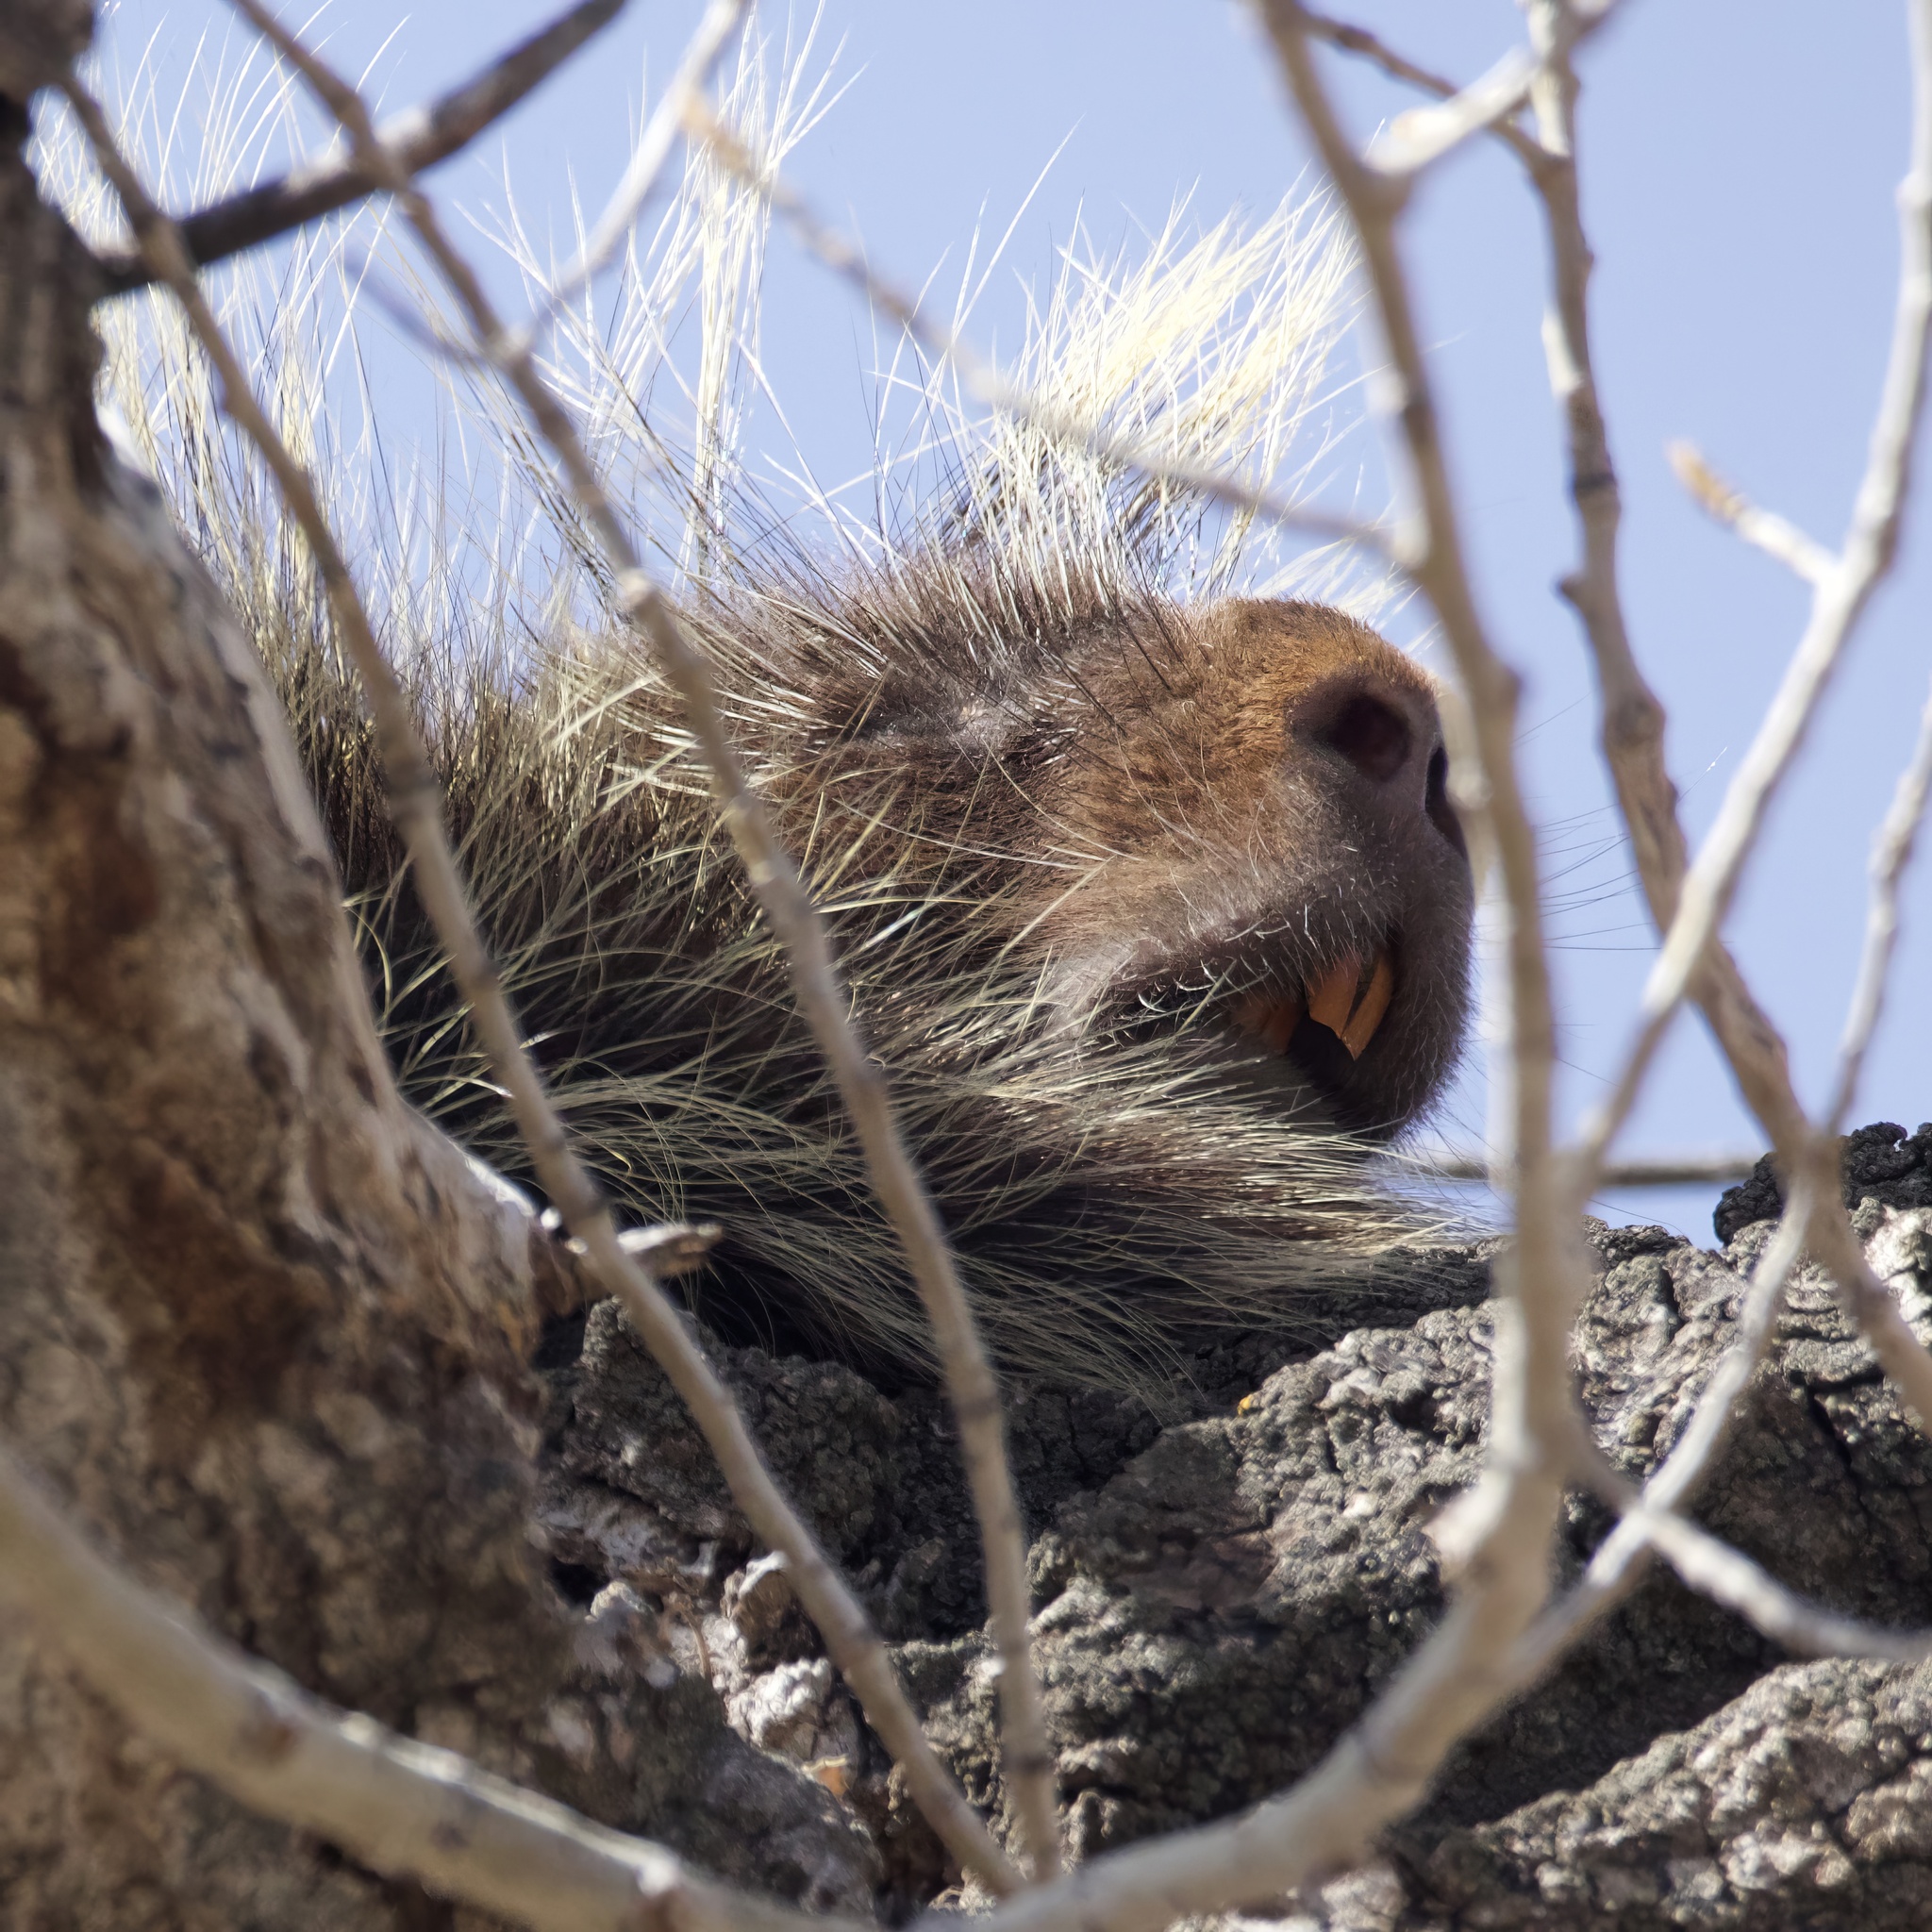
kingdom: Animalia
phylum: Chordata
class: Mammalia
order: Rodentia
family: Erethizontidae
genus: Erethizon
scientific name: Erethizon dorsatus
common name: North american porcupine
